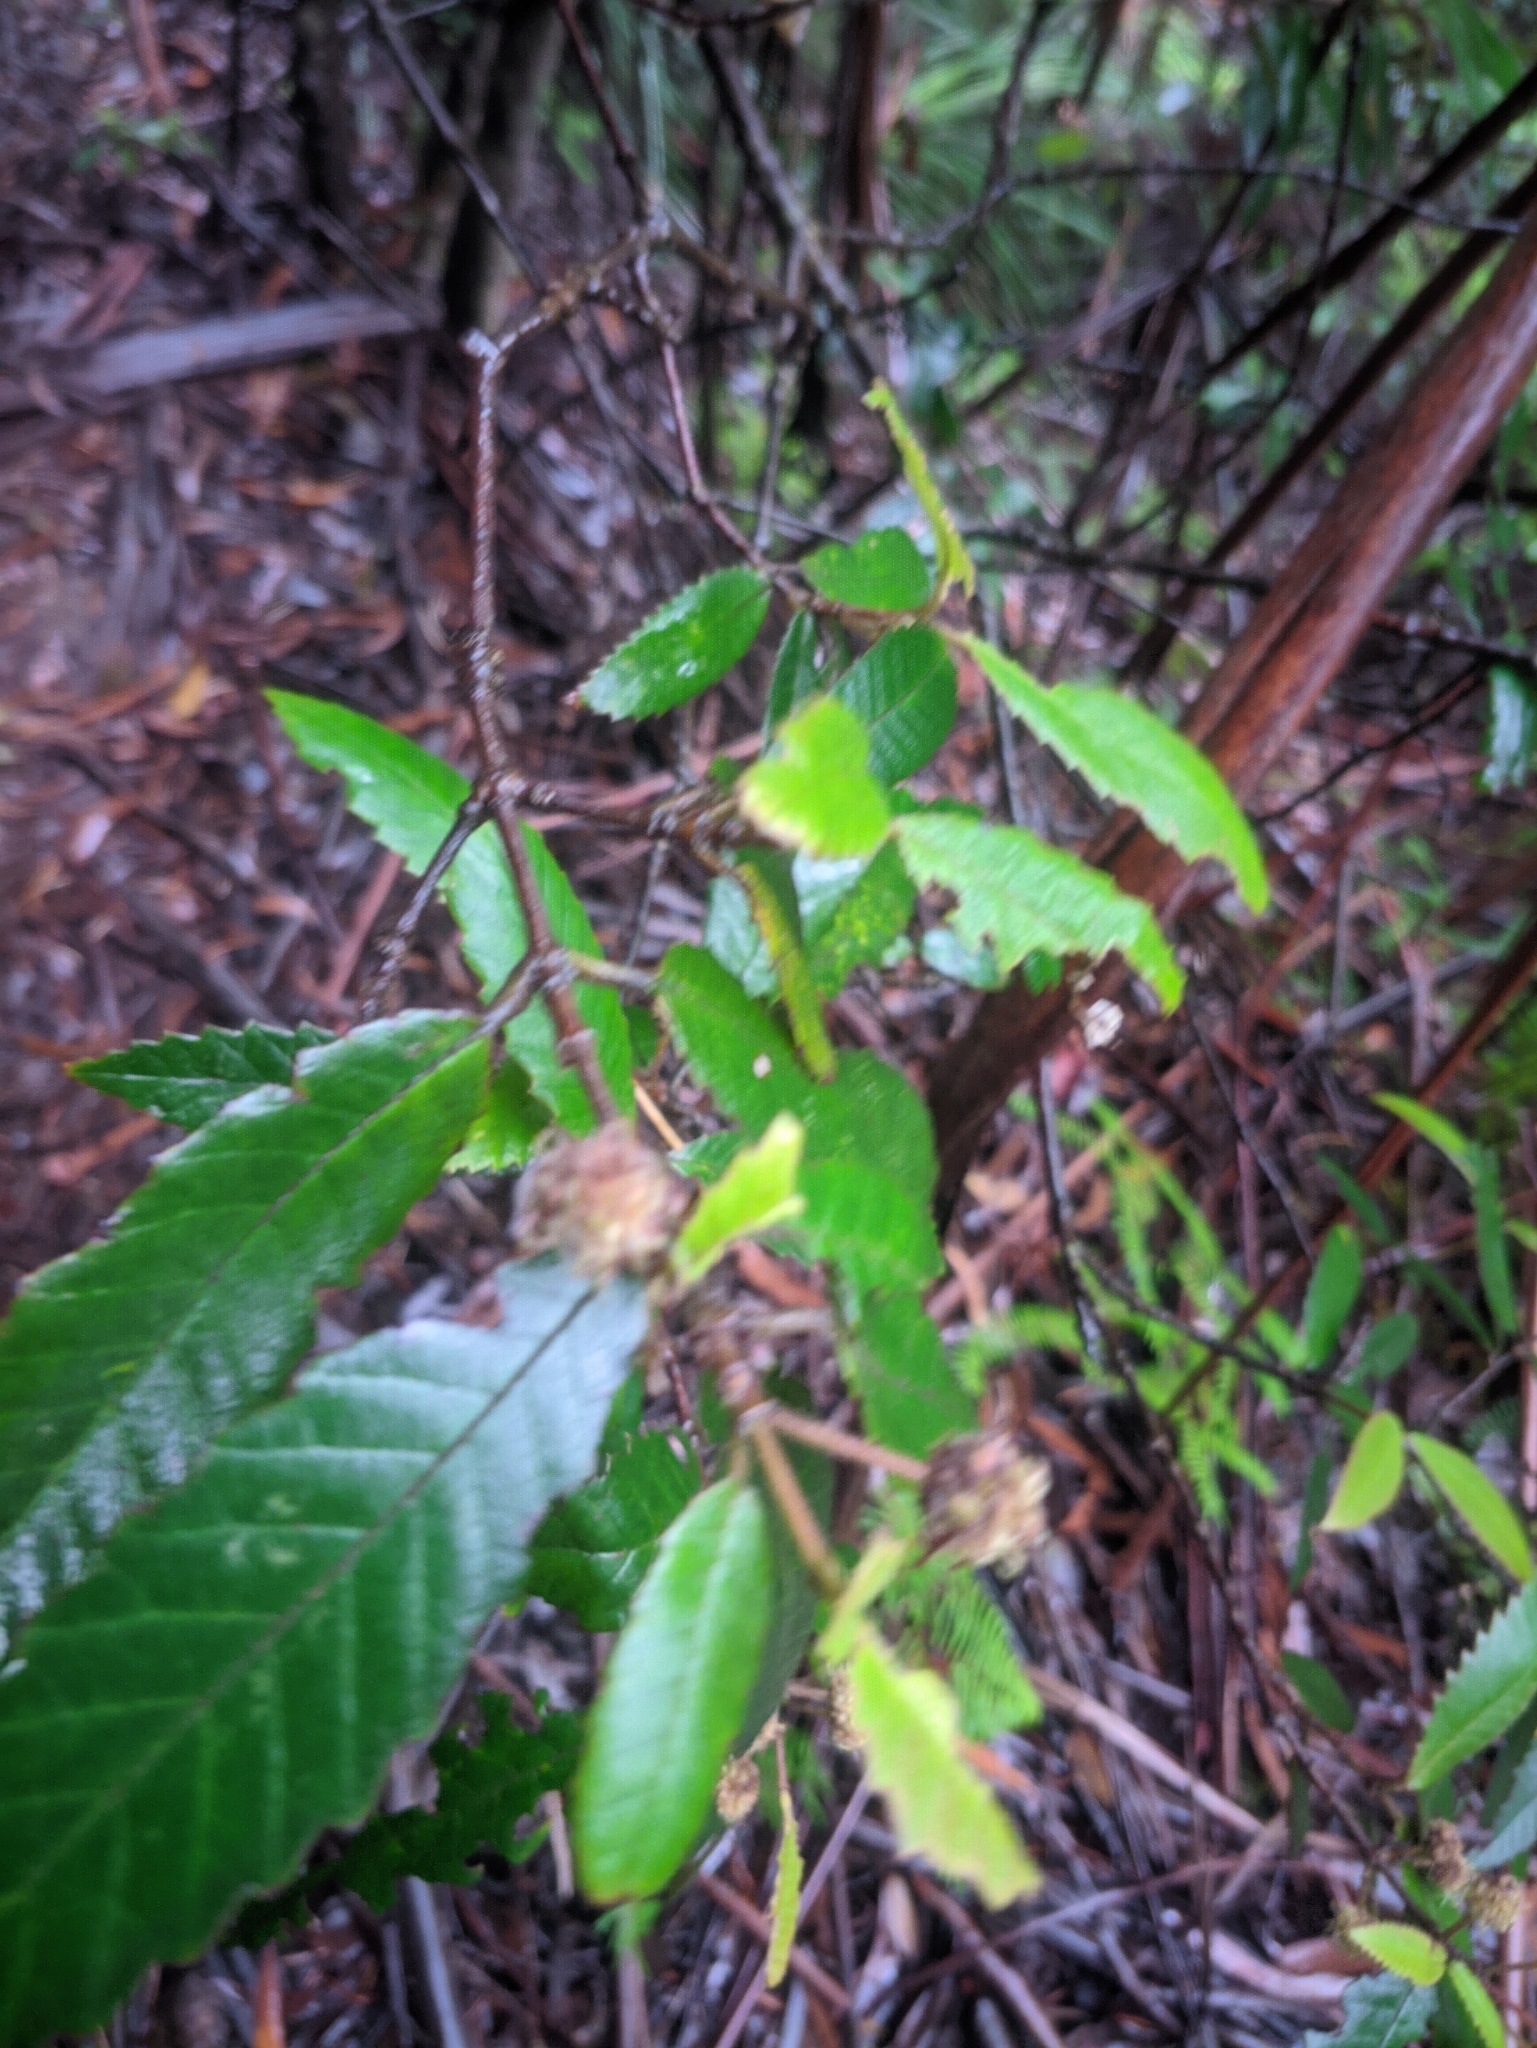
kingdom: Plantae
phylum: Tracheophyta
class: Magnoliopsida
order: Oxalidales
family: Cunoniaceae
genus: Callicoma
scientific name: Callicoma serratifolia
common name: Black wattle
